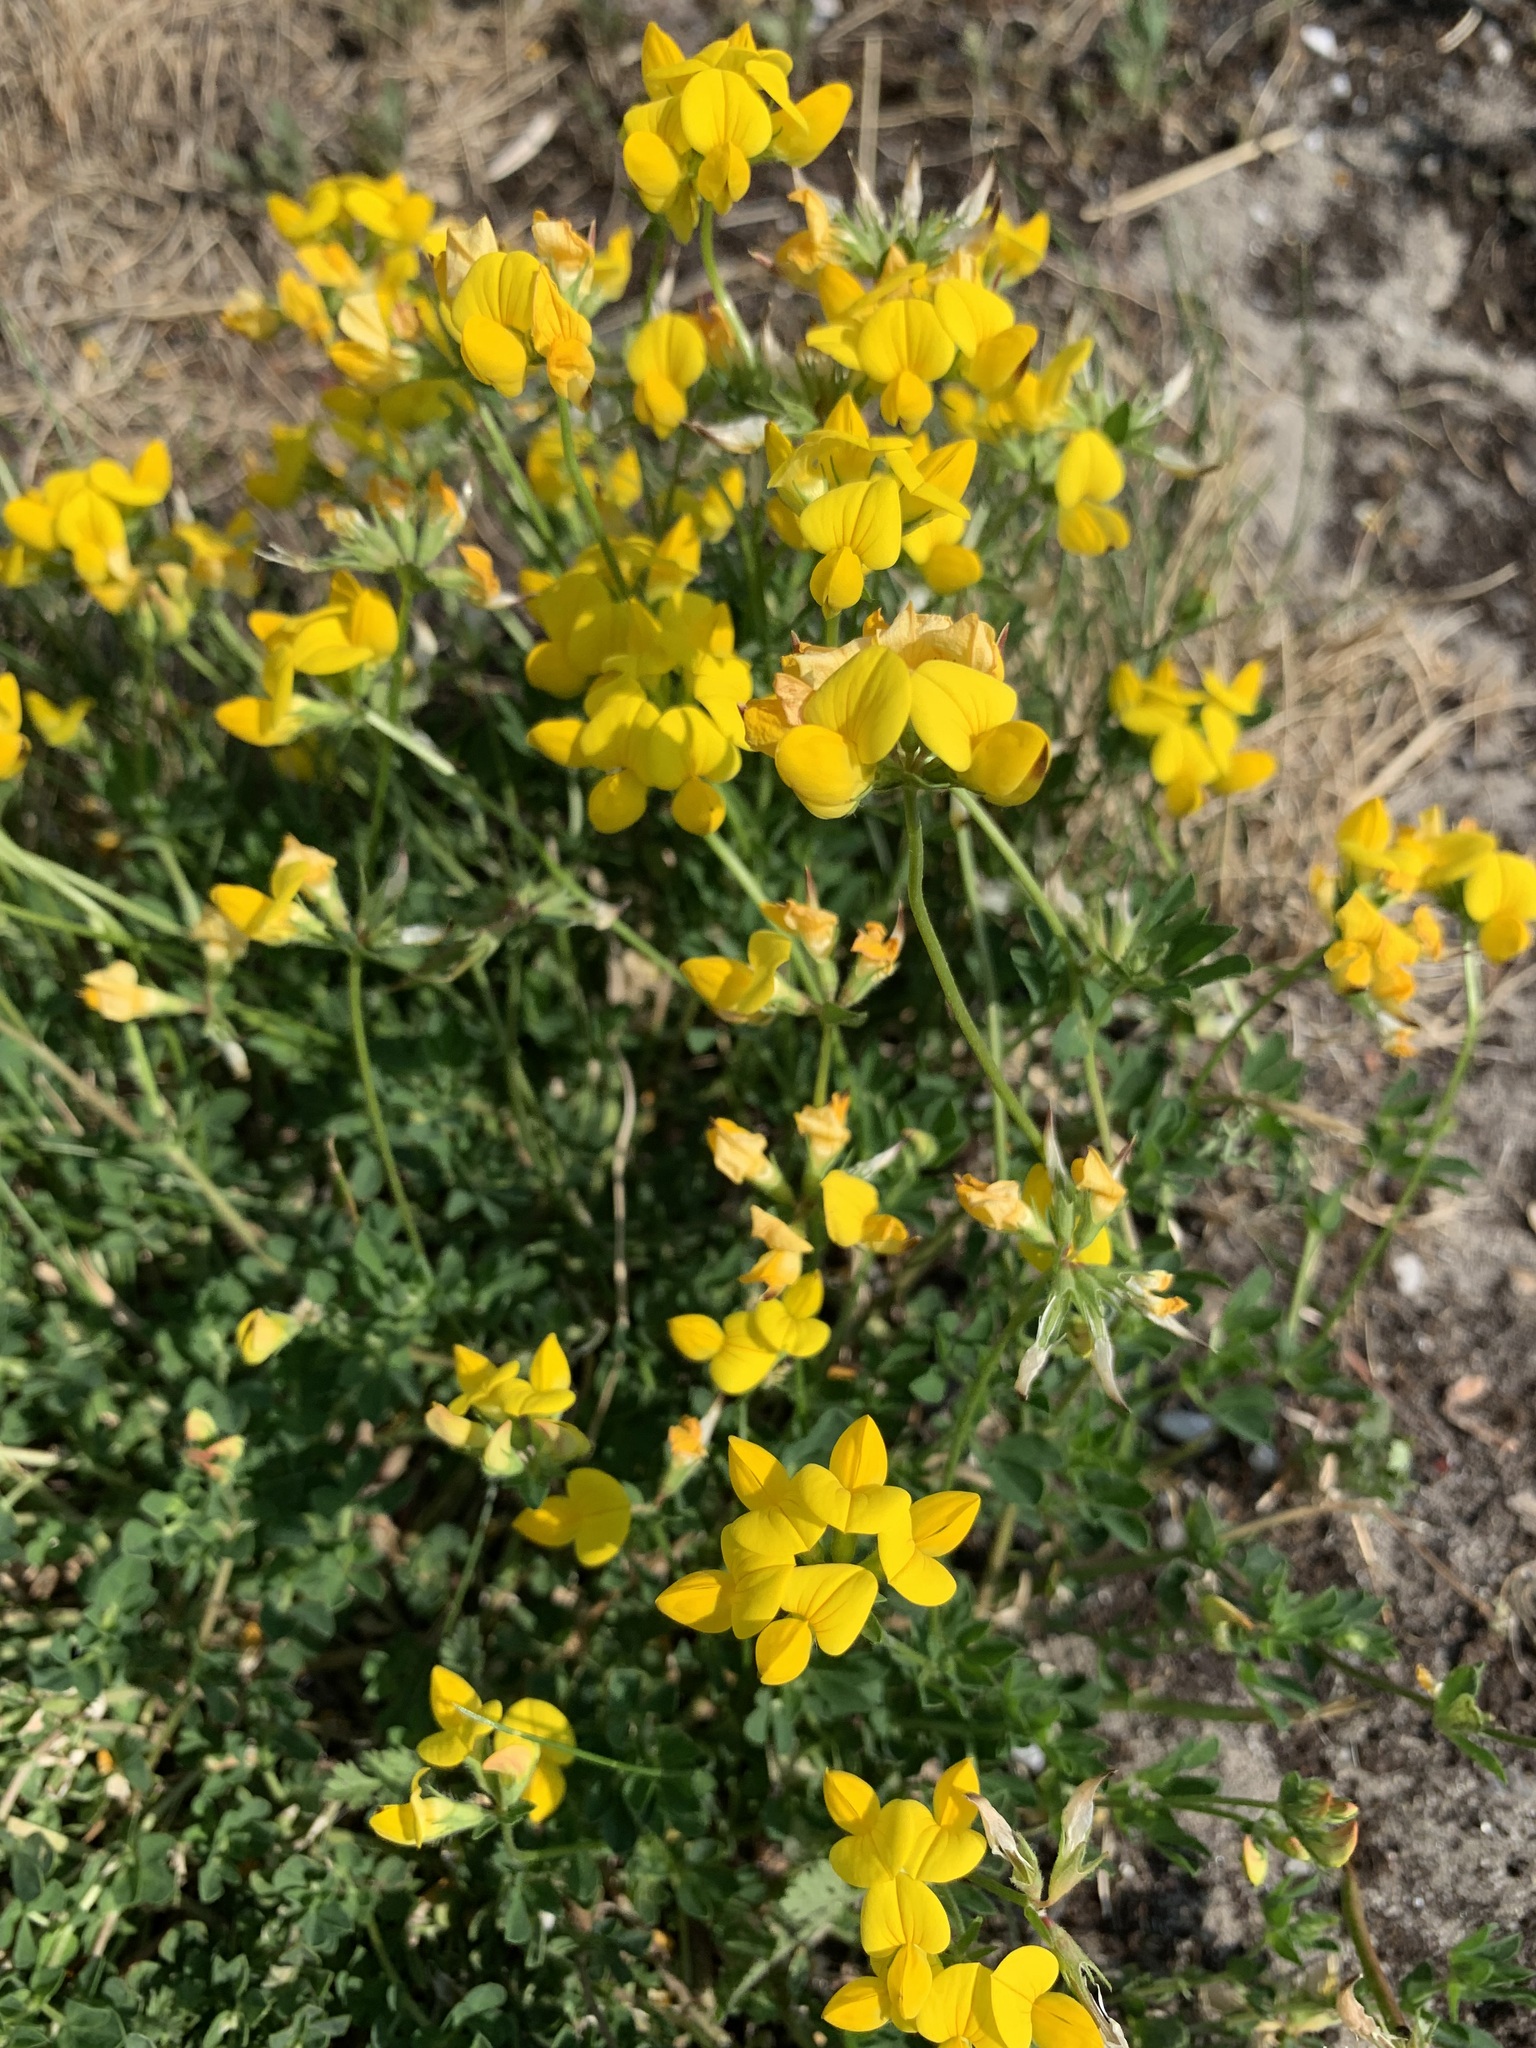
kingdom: Plantae
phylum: Tracheophyta
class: Magnoliopsida
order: Fabales
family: Fabaceae
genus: Lotus
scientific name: Lotus corniculatus
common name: Common bird's-foot-trefoil
